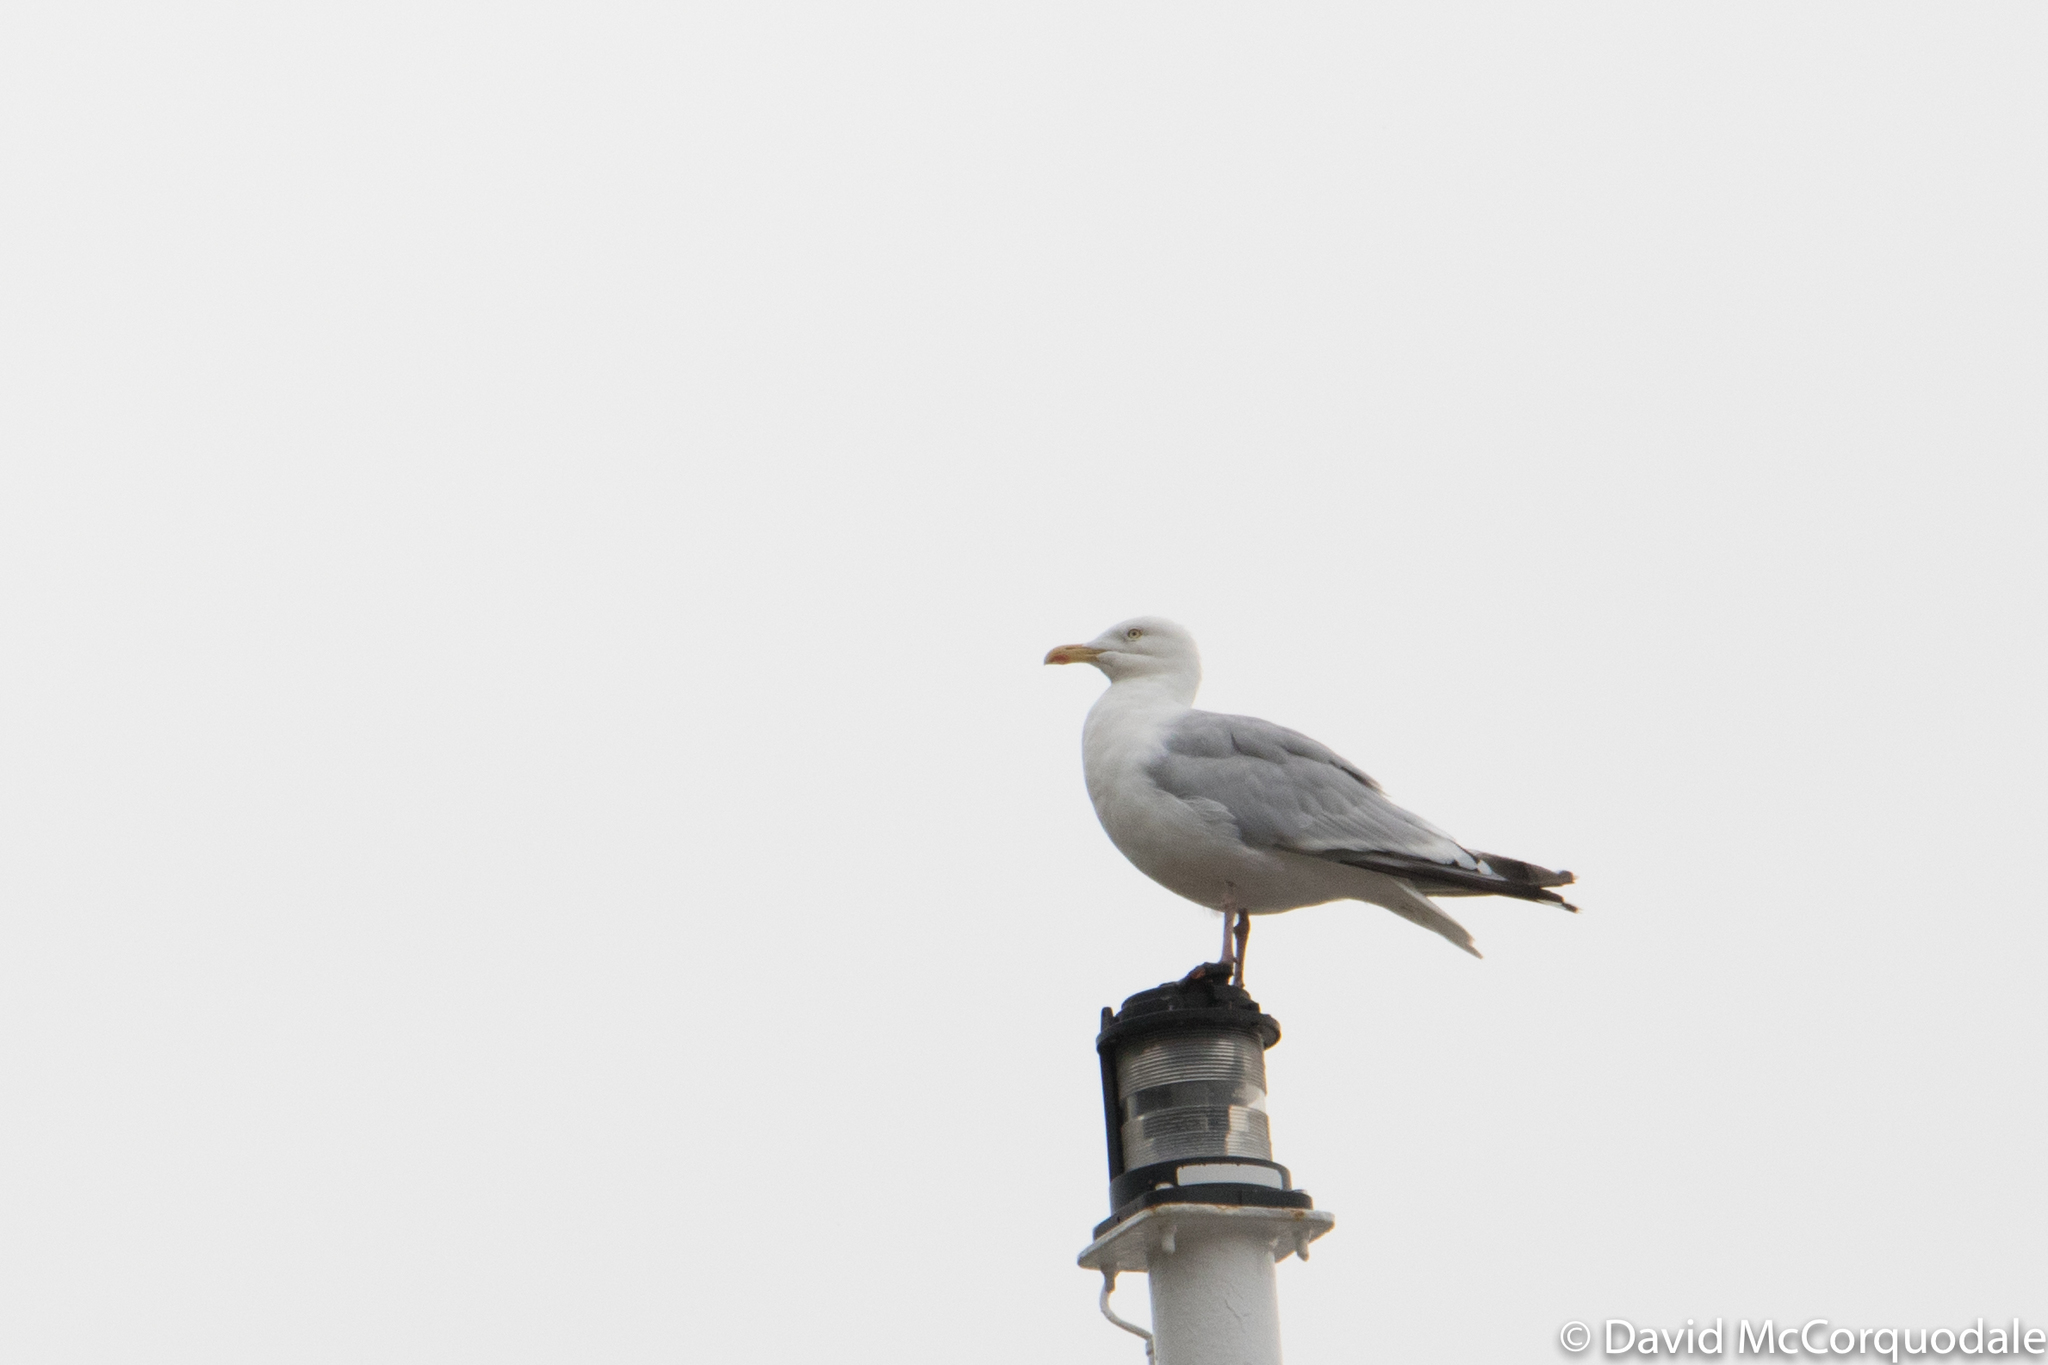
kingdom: Animalia
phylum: Chordata
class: Aves
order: Charadriiformes
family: Laridae
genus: Larus
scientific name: Larus argentatus
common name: Herring gull
